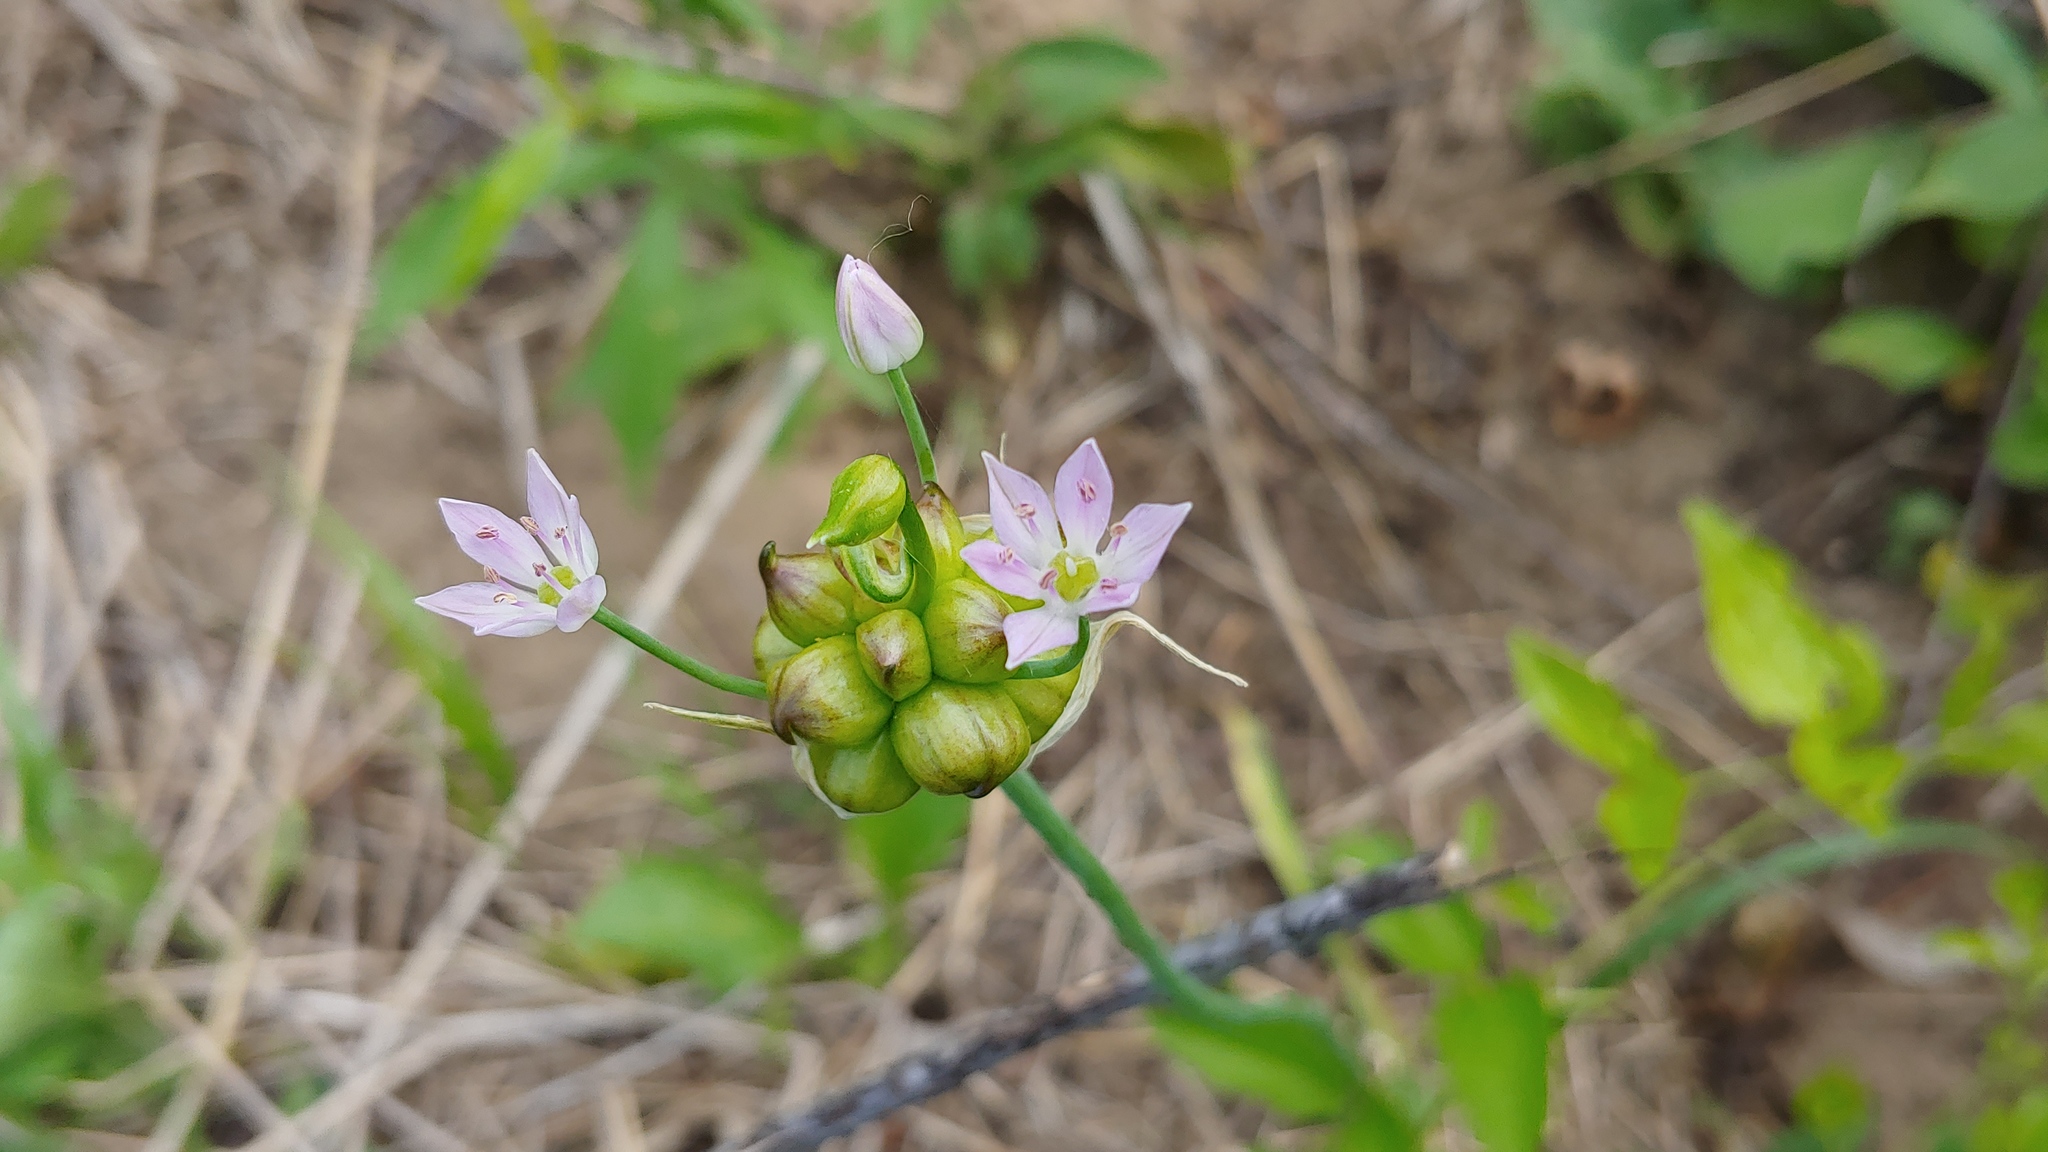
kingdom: Plantae
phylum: Tracheophyta
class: Liliopsida
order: Asparagales
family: Amaryllidaceae
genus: Allium
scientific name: Allium canadense
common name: Meadow garlic
